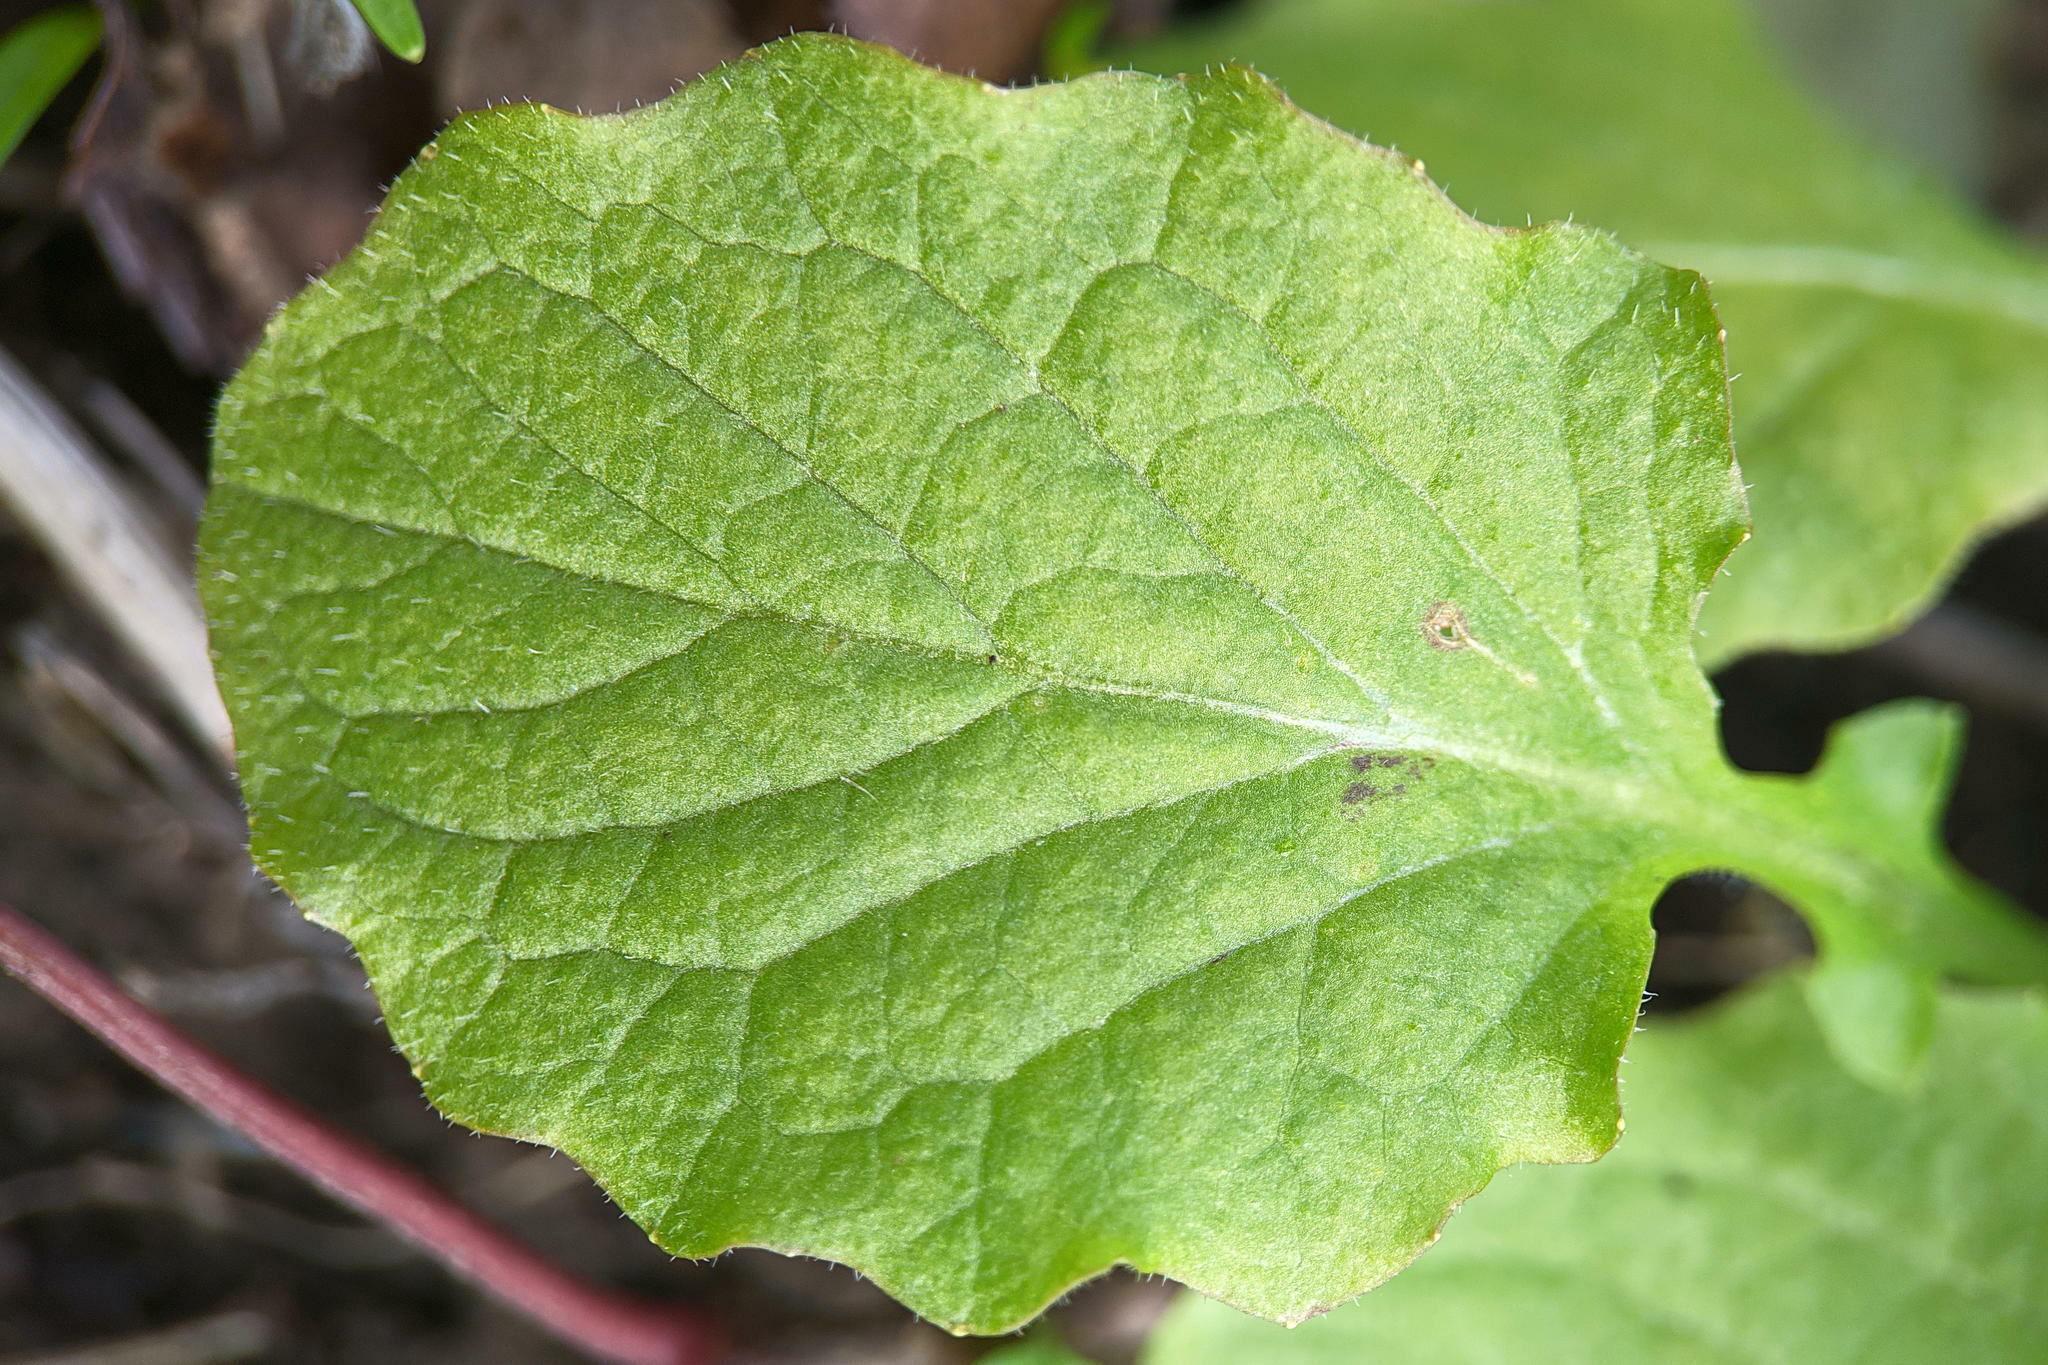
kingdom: Plantae
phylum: Tracheophyta
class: Magnoliopsida
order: Asterales
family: Asteraceae
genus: Lapsana
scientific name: Lapsana communis
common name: Nipplewort
